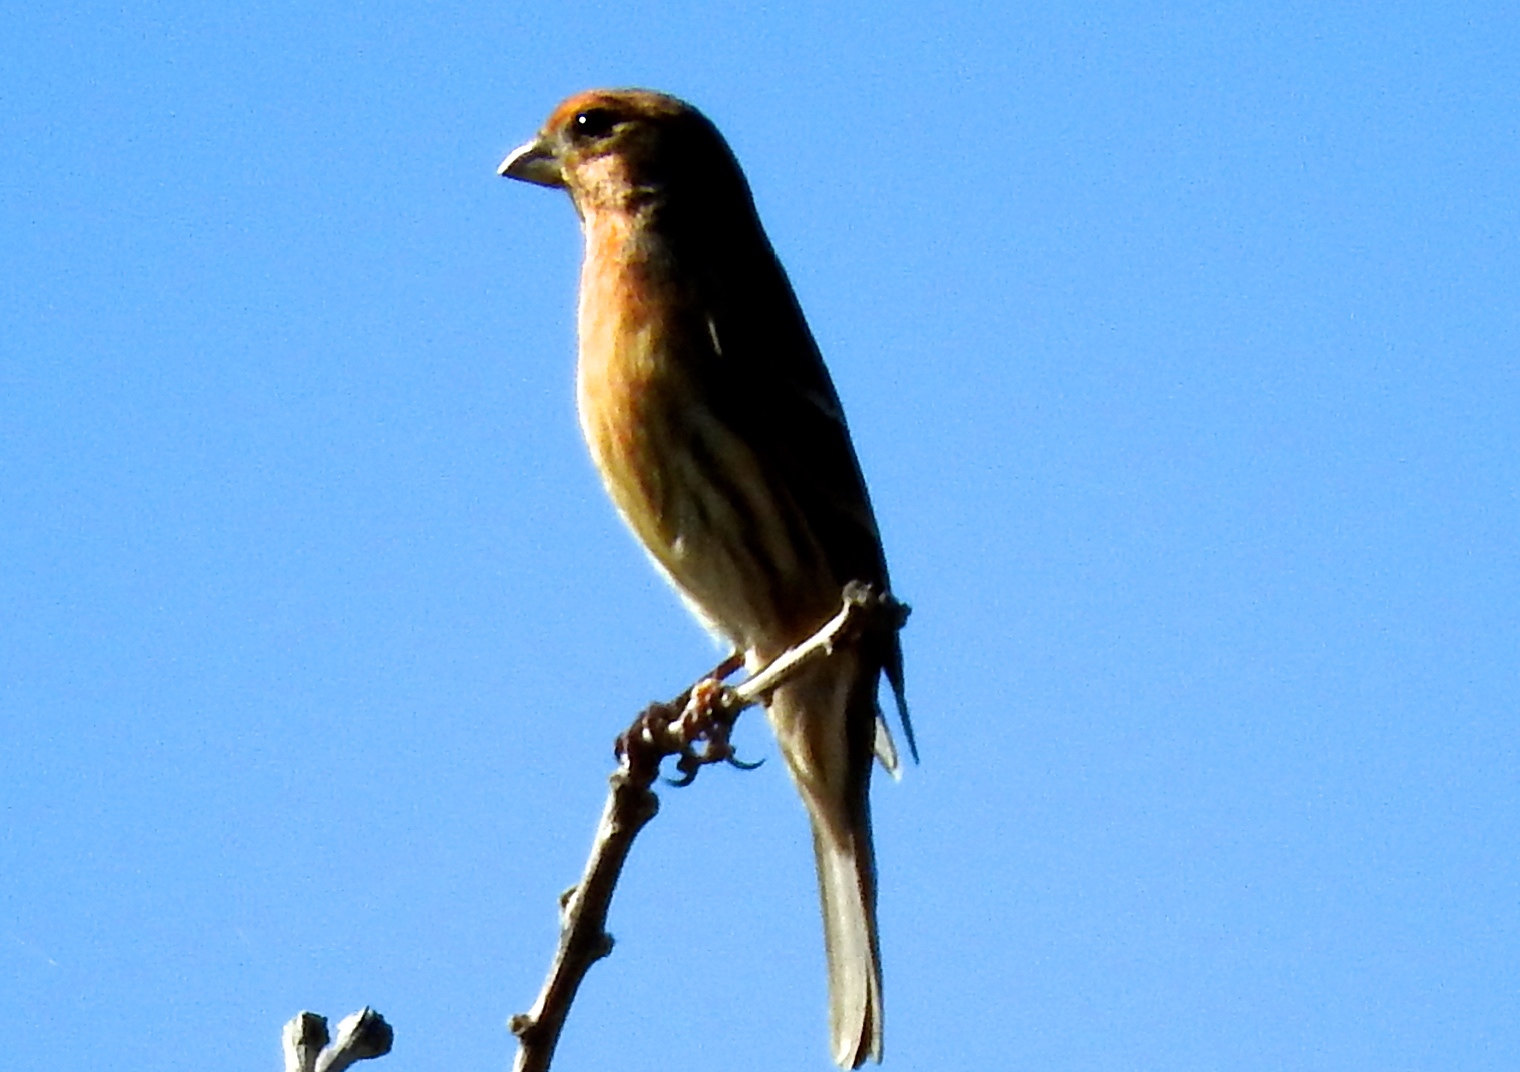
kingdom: Animalia
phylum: Chordata
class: Aves
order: Passeriformes
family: Fringillidae
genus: Haemorhous
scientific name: Haemorhous mexicanus
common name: House finch
